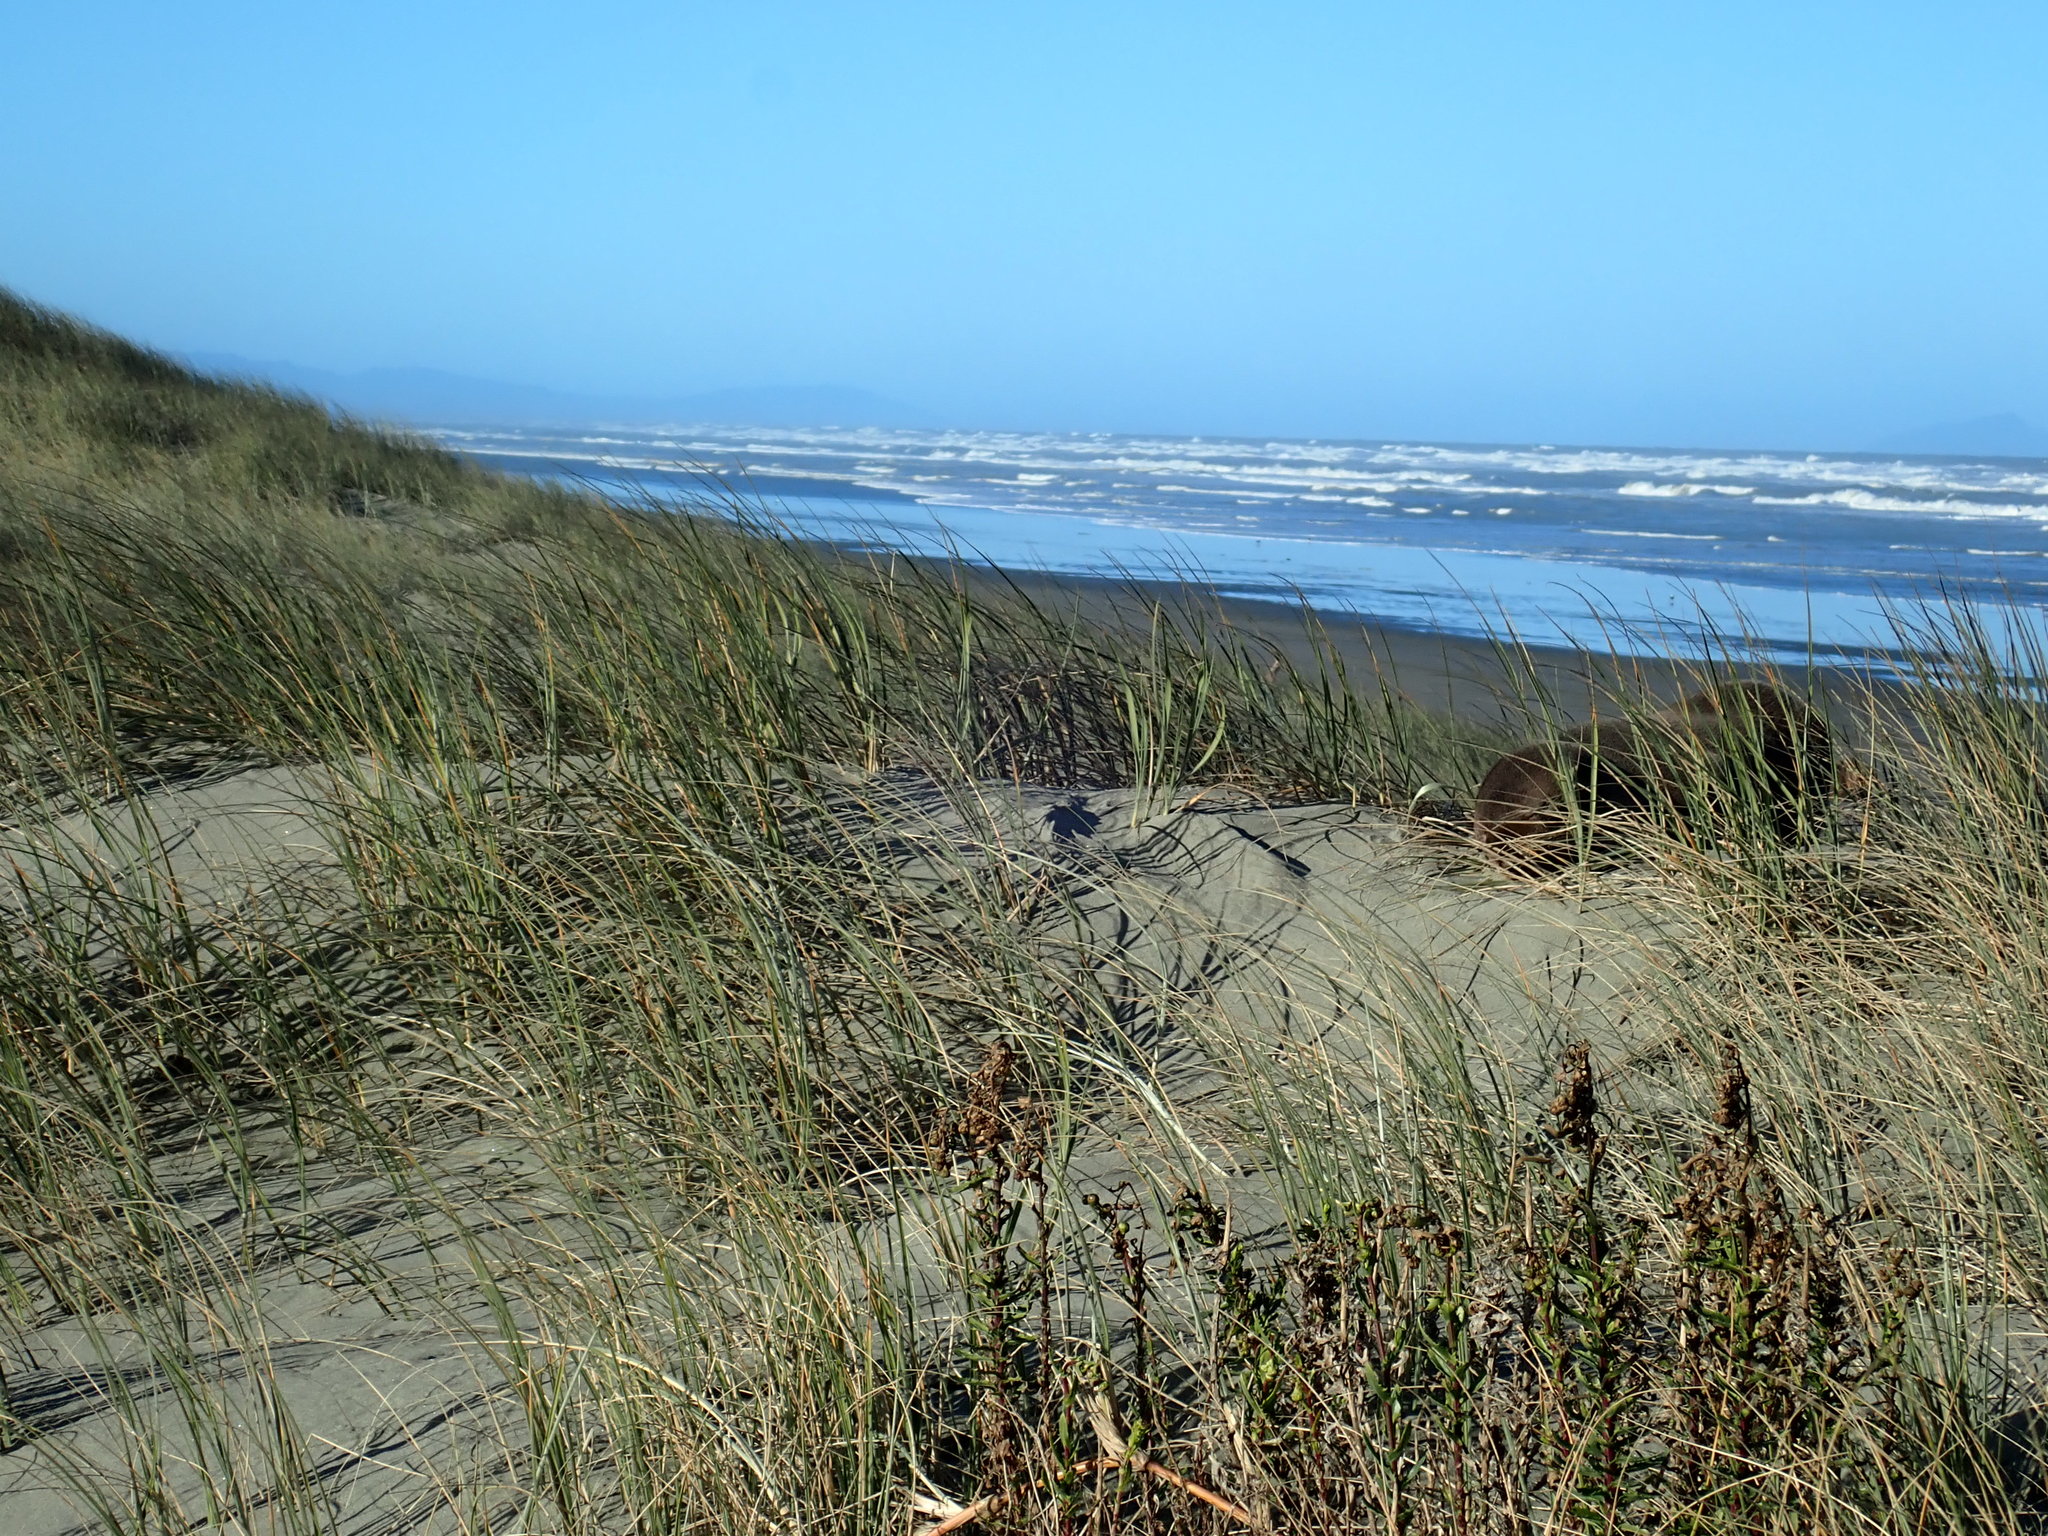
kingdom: Animalia
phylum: Chordata
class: Mammalia
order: Carnivora
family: Otariidae
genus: Arctocephalus
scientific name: Arctocephalus forsteri
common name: New zealand fur seal
